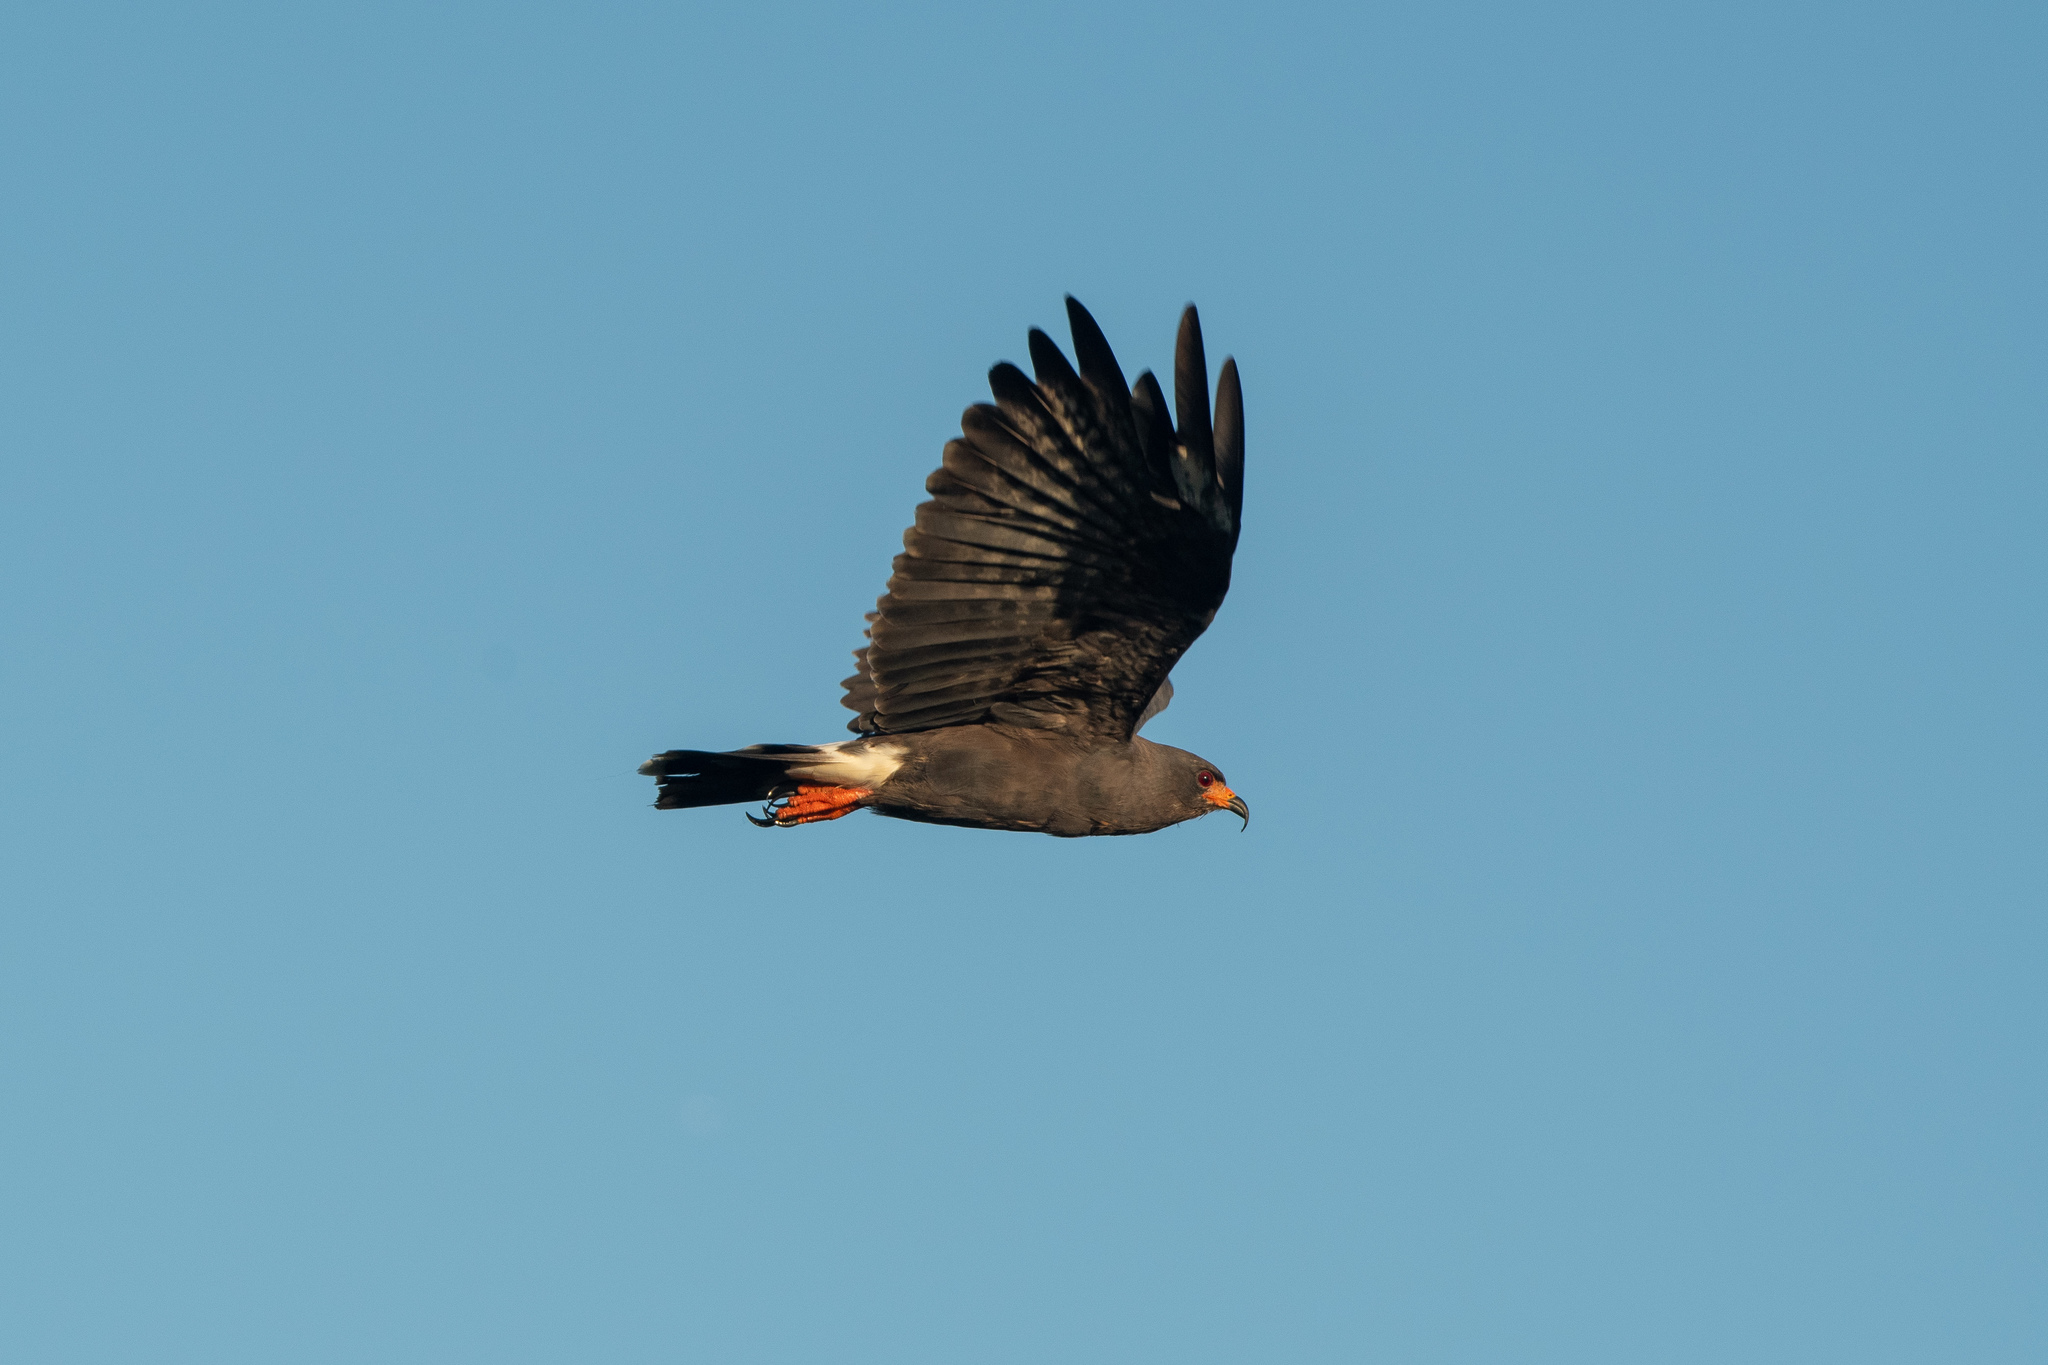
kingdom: Animalia
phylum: Chordata
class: Aves
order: Accipitriformes
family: Accipitridae
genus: Rostrhamus
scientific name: Rostrhamus sociabilis
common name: Snail kite
